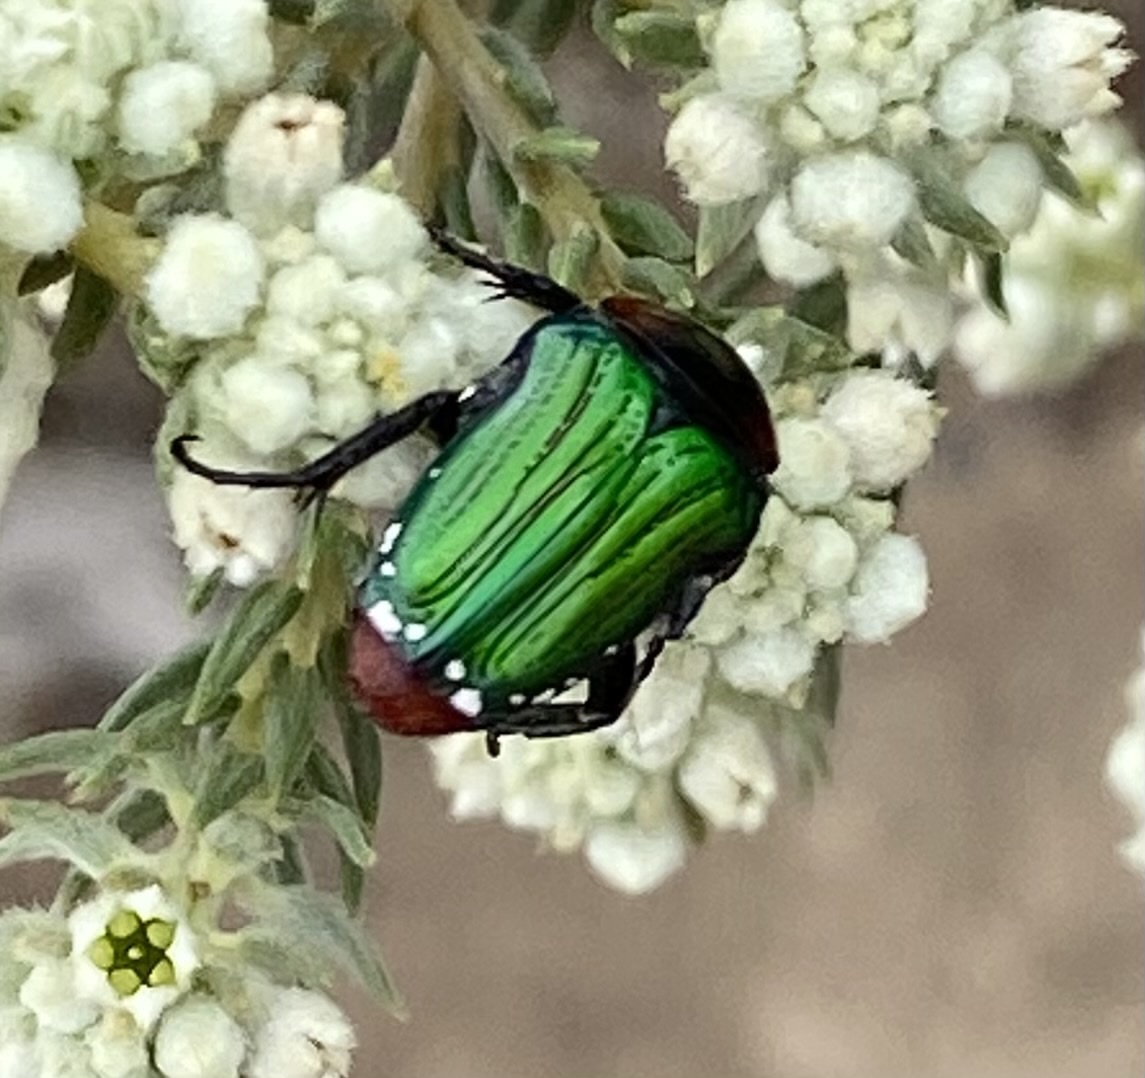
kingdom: Animalia
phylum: Arthropoda
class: Insecta
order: Coleoptera
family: Scarabaeidae
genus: Leucocelis
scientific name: Leucocelis haemorrhoidalis
